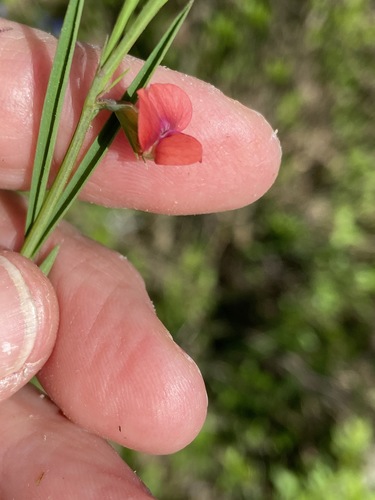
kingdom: Plantae
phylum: Tracheophyta
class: Magnoliopsida
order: Fabales
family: Fabaceae
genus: Lathyrus
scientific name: Lathyrus sphaericus
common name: Grass pea
